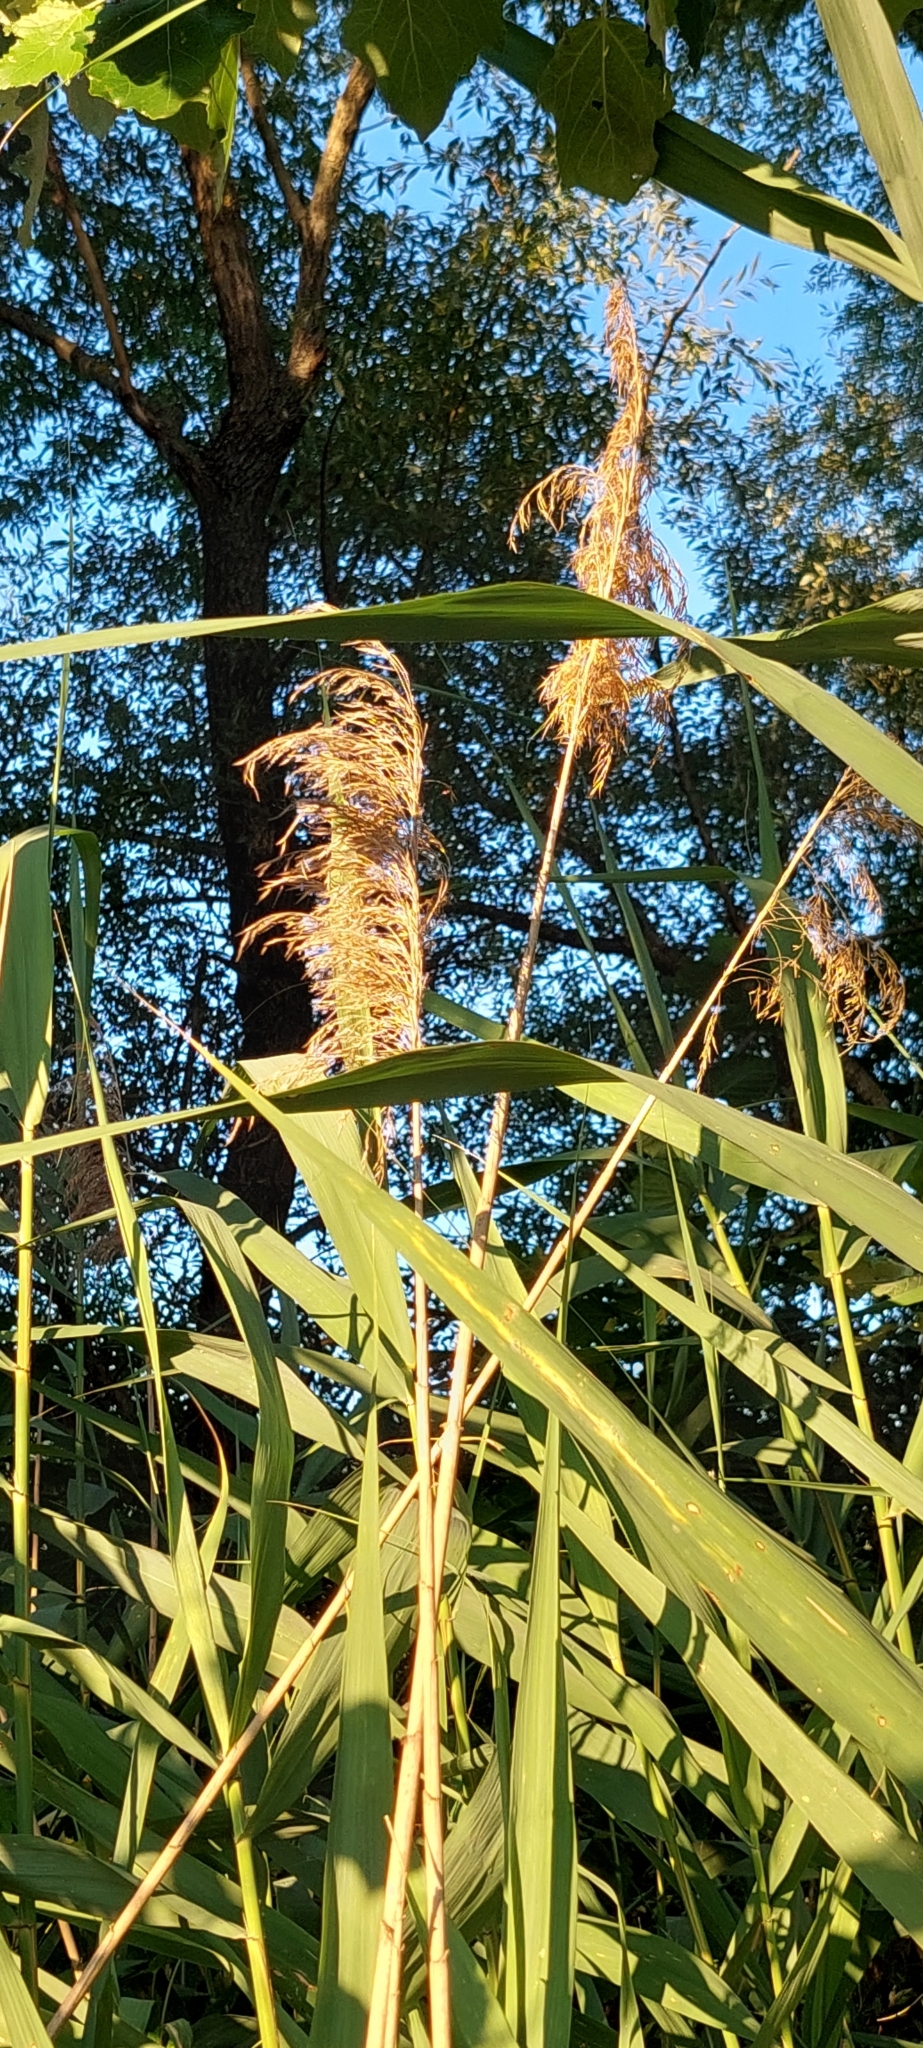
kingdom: Plantae
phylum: Tracheophyta
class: Liliopsida
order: Poales
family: Poaceae
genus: Phragmites
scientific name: Phragmites australis
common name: Common reed
